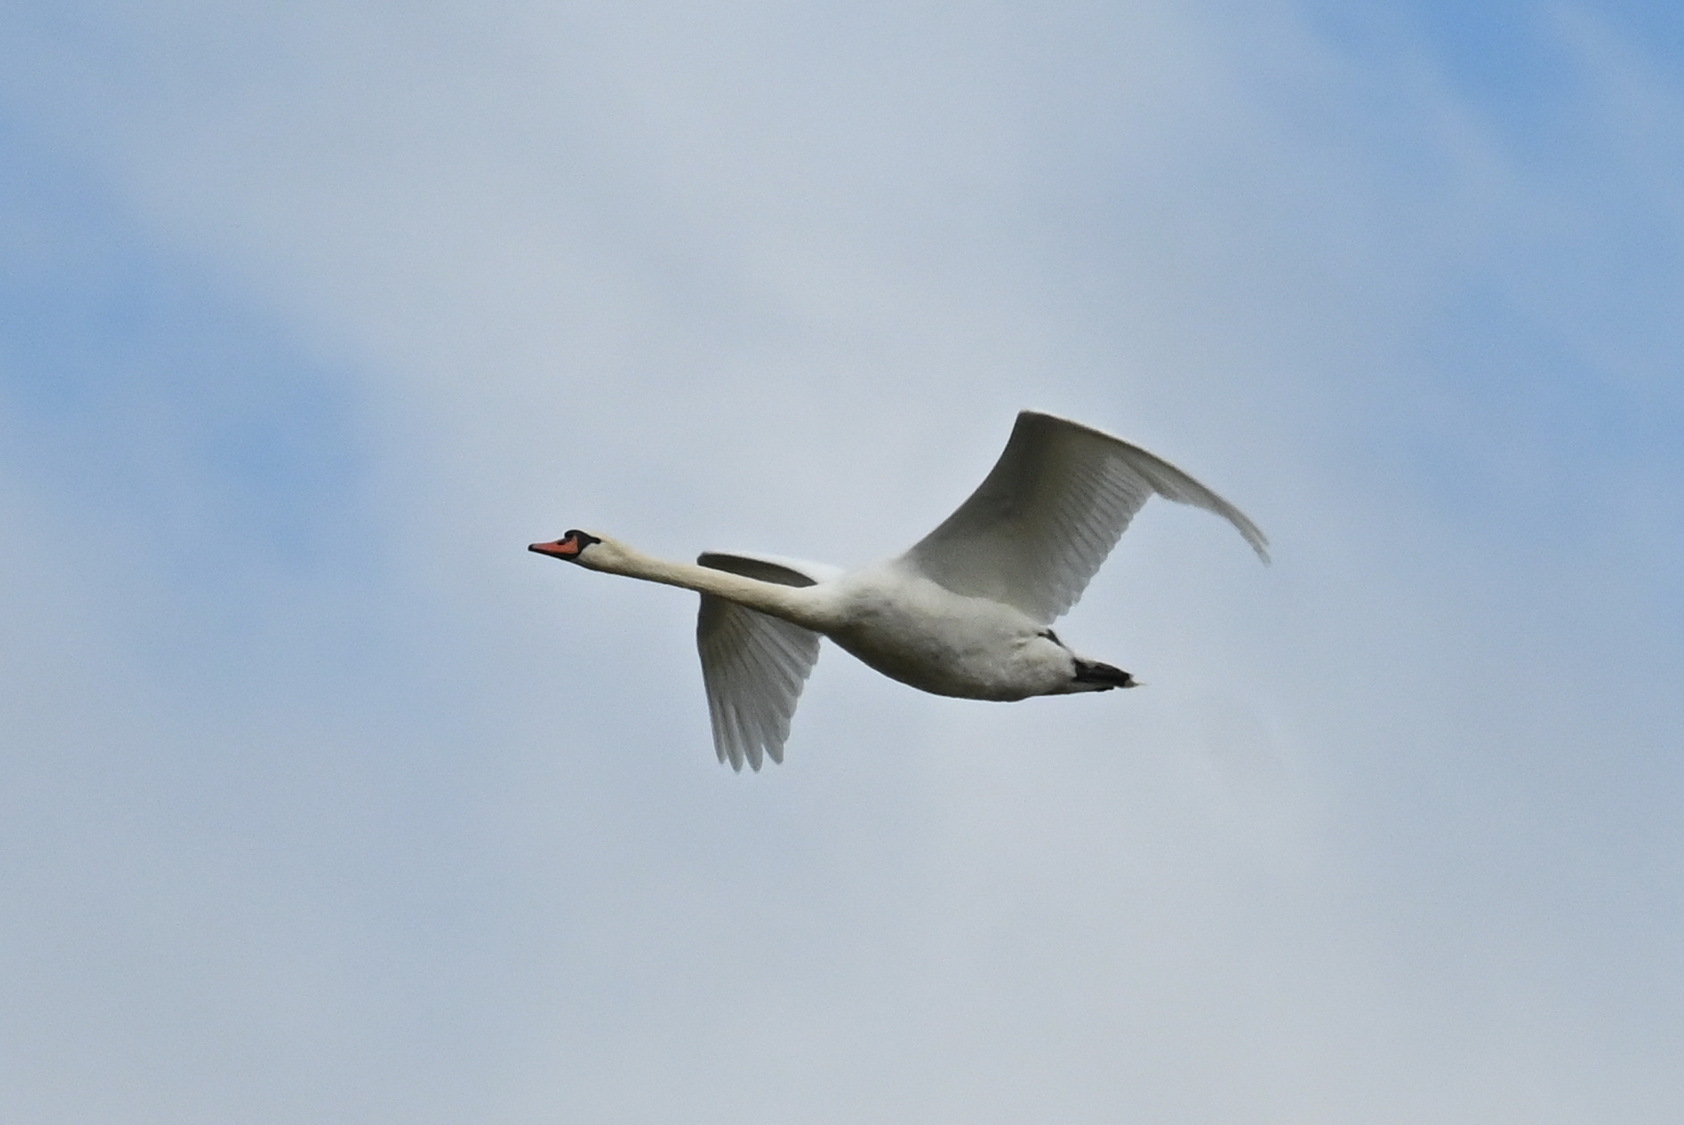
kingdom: Animalia
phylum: Chordata
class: Aves
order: Anseriformes
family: Anatidae
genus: Cygnus
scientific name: Cygnus olor
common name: Mute swan
